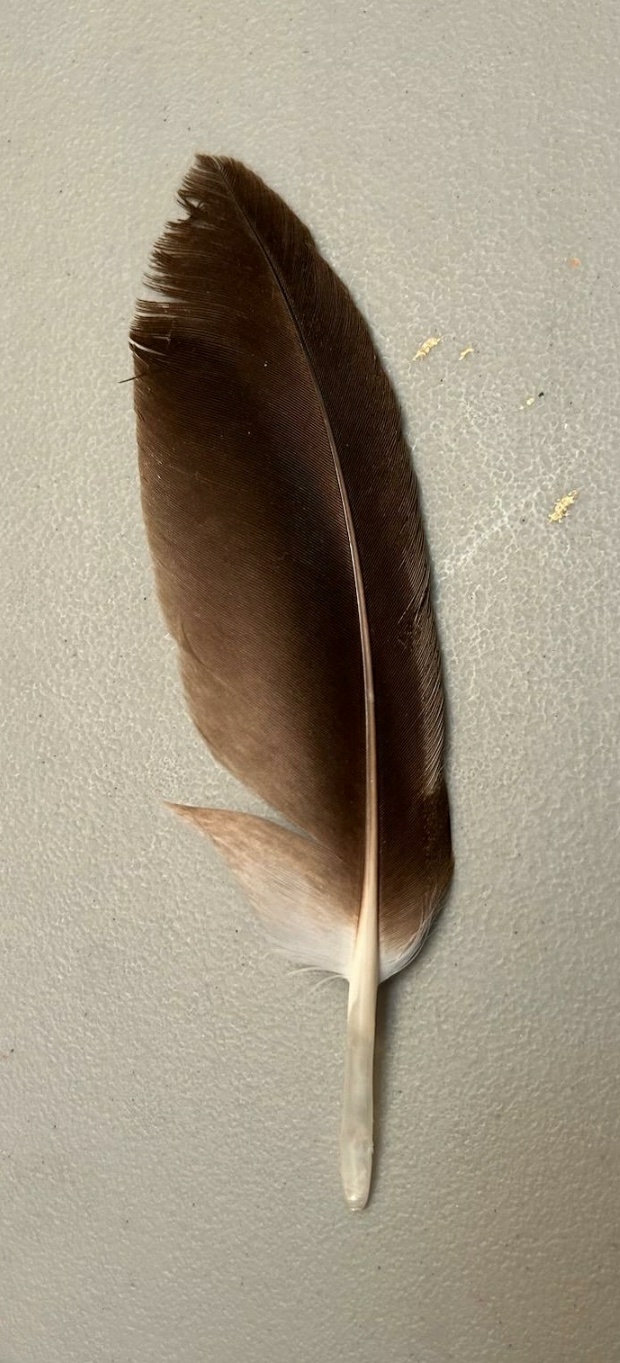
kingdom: Animalia
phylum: Chordata
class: Aves
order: Accipitriformes
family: Accipitridae
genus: Haliaeetus
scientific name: Haliaeetus leucocephalus
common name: Bald eagle
